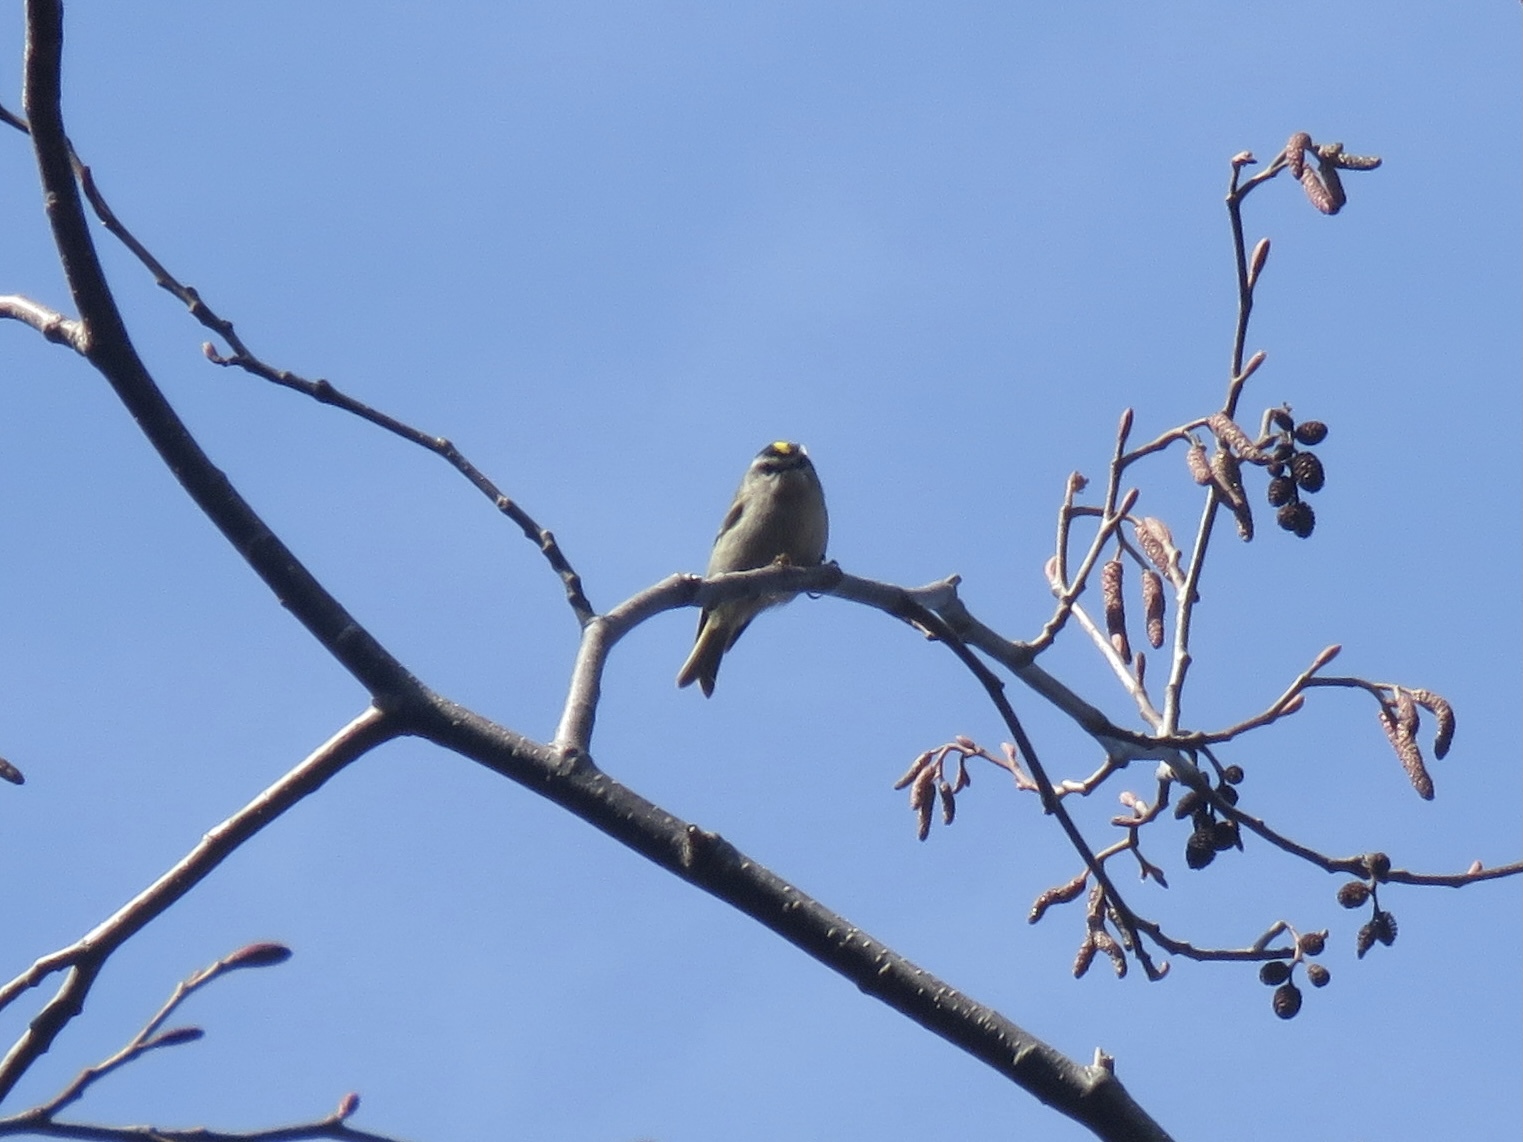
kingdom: Animalia
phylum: Chordata
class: Aves
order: Passeriformes
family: Regulidae
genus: Regulus
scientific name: Regulus satrapa
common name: Golden-crowned kinglet
